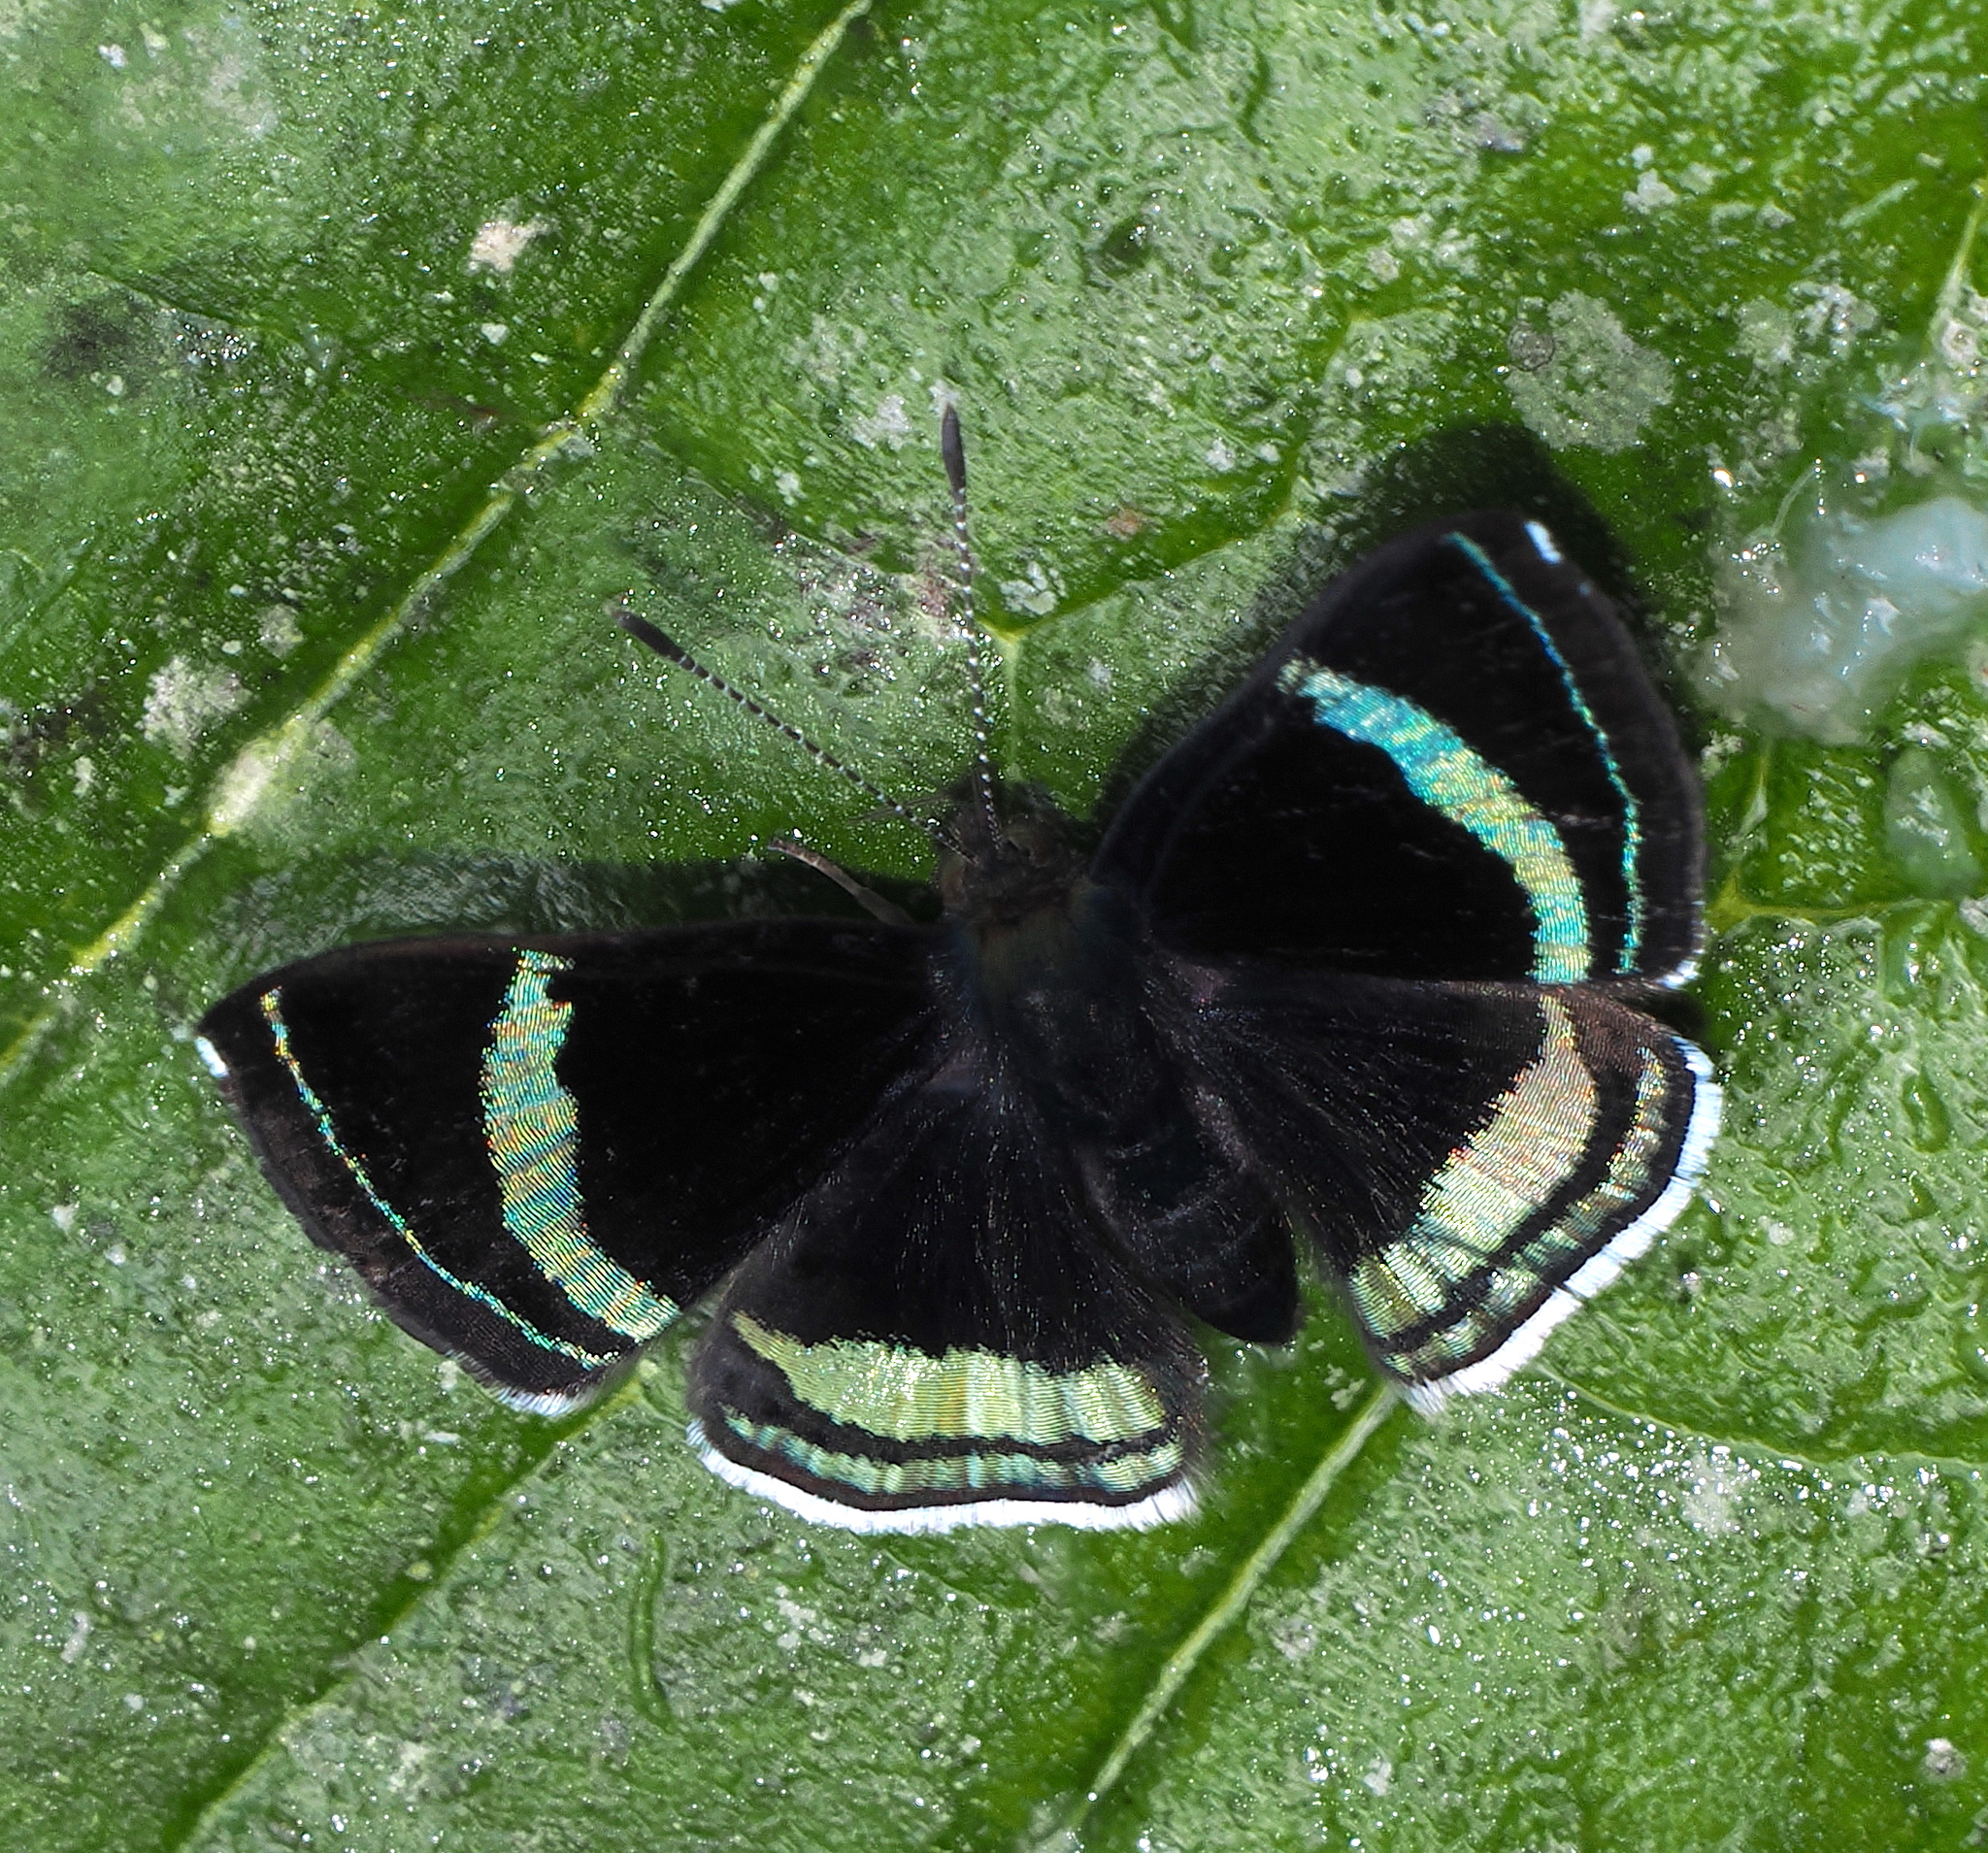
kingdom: Animalia
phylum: Arthropoda
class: Insecta
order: Lepidoptera
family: Riodinidae
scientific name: Riodinidae
